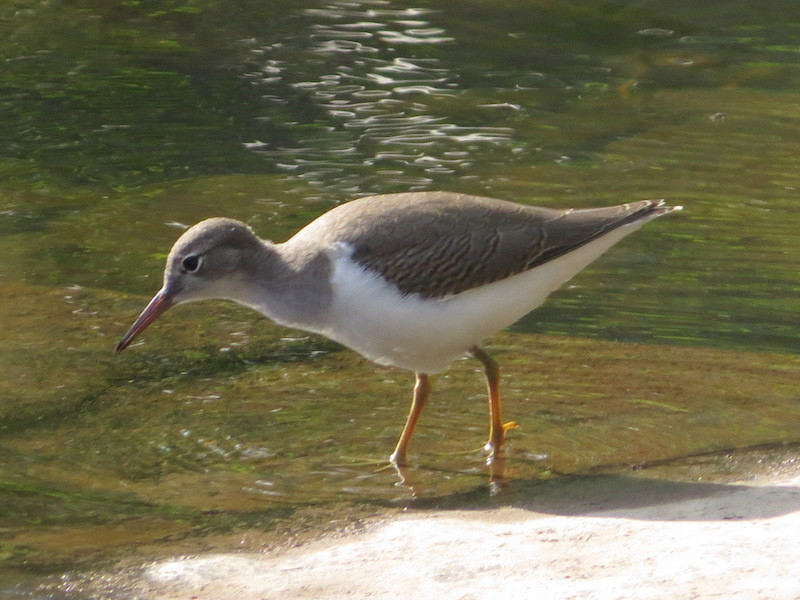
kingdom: Animalia
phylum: Chordata
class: Aves
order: Charadriiformes
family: Scolopacidae
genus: Actitis
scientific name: Actitis macularius
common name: Spotted sandpiper
